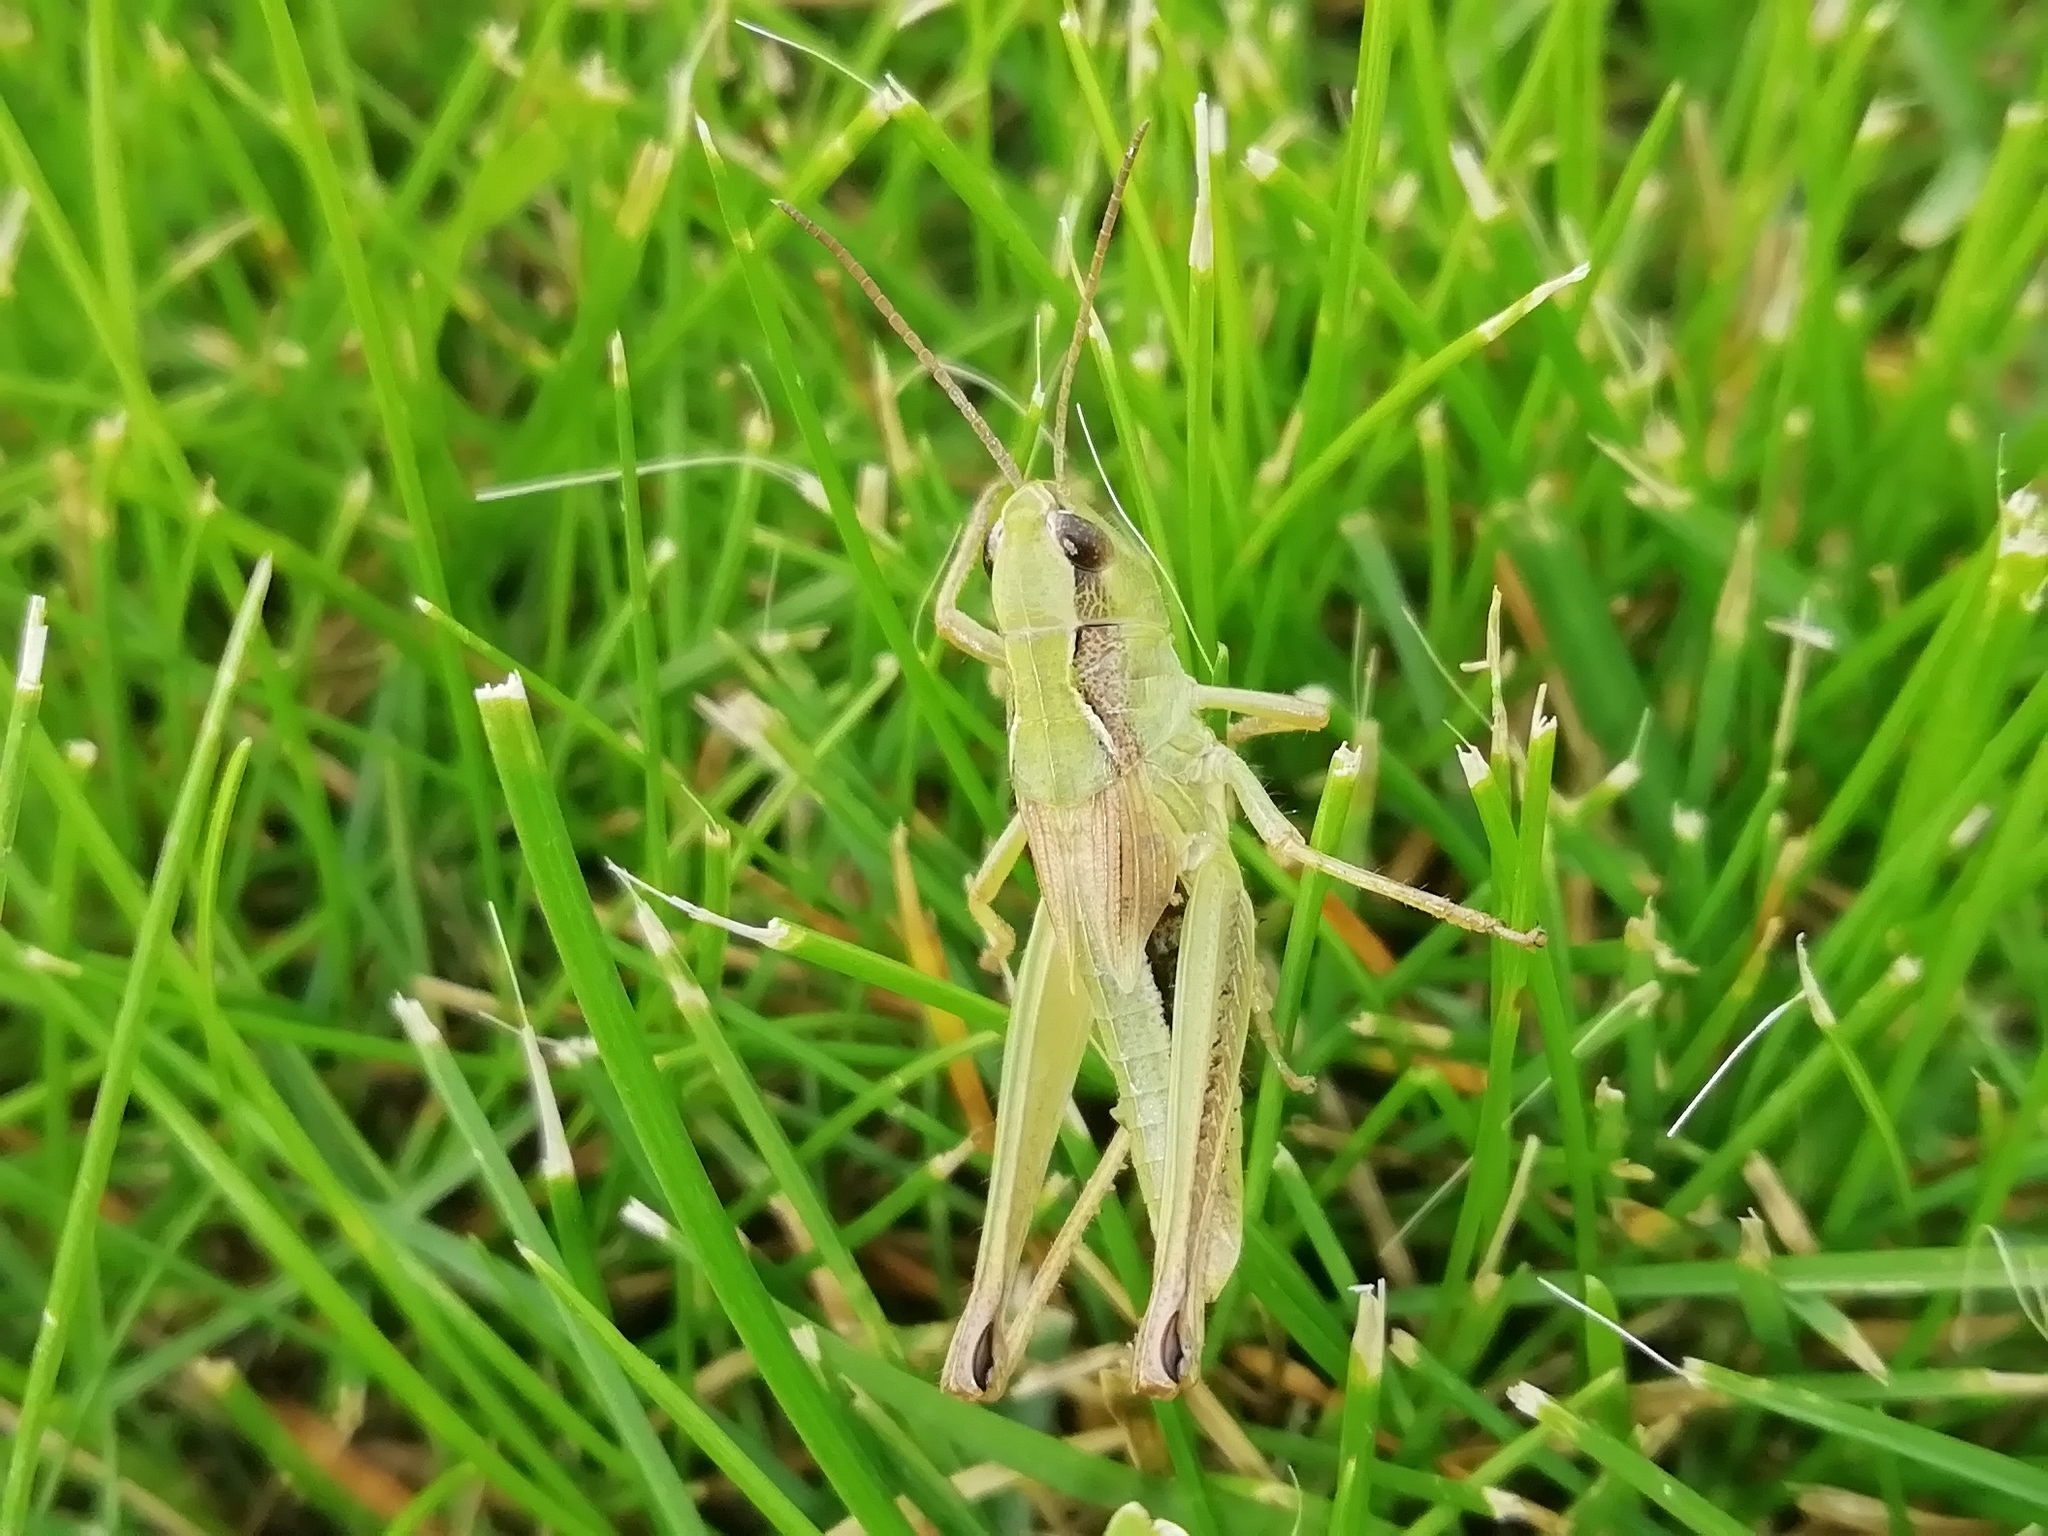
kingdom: Animalia
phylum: Arthropoda
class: Insecta
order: Orthoptera
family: Acrididae
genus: Chorthippus
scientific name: Chorthippus fallax
